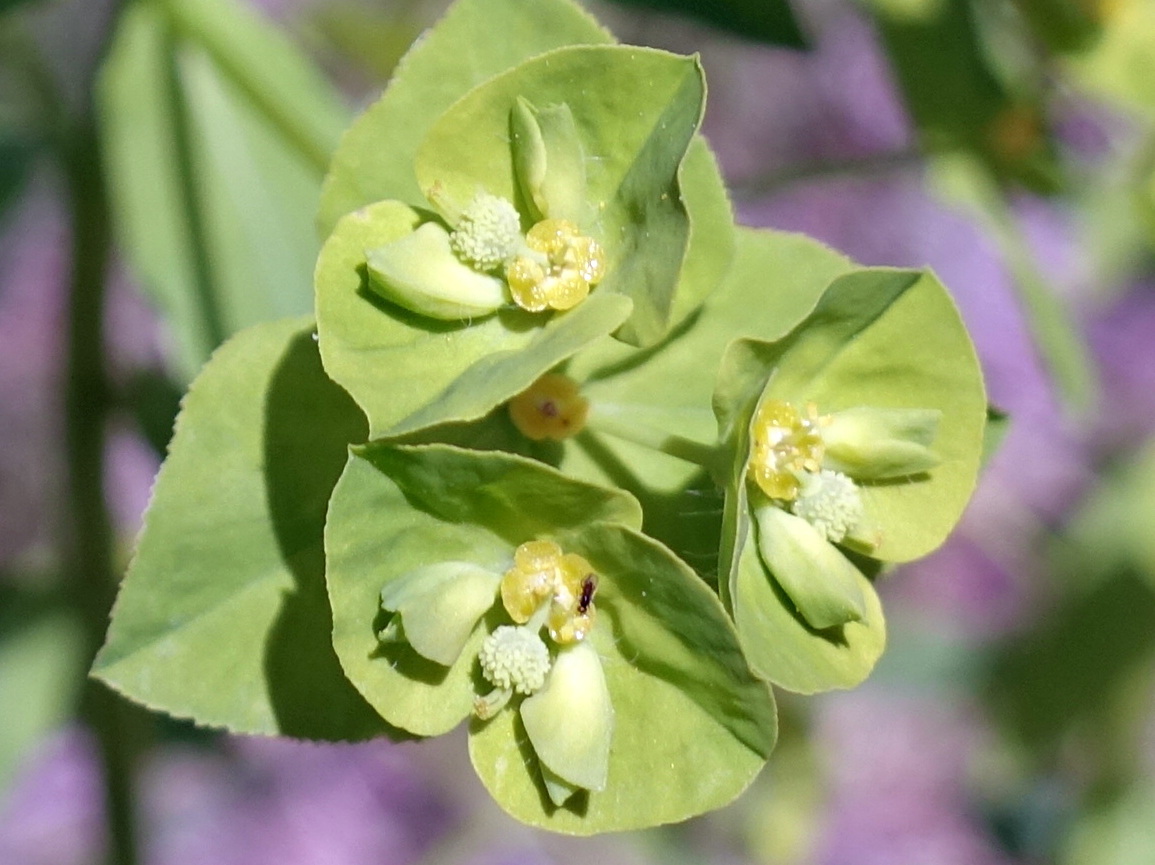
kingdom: Plantae
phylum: Tracheophyta
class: Magnoliopsida
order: Malpighiales
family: Euphorbiaceae
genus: Euphorbia
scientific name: Euphorbia stricta
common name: Upright spurge
